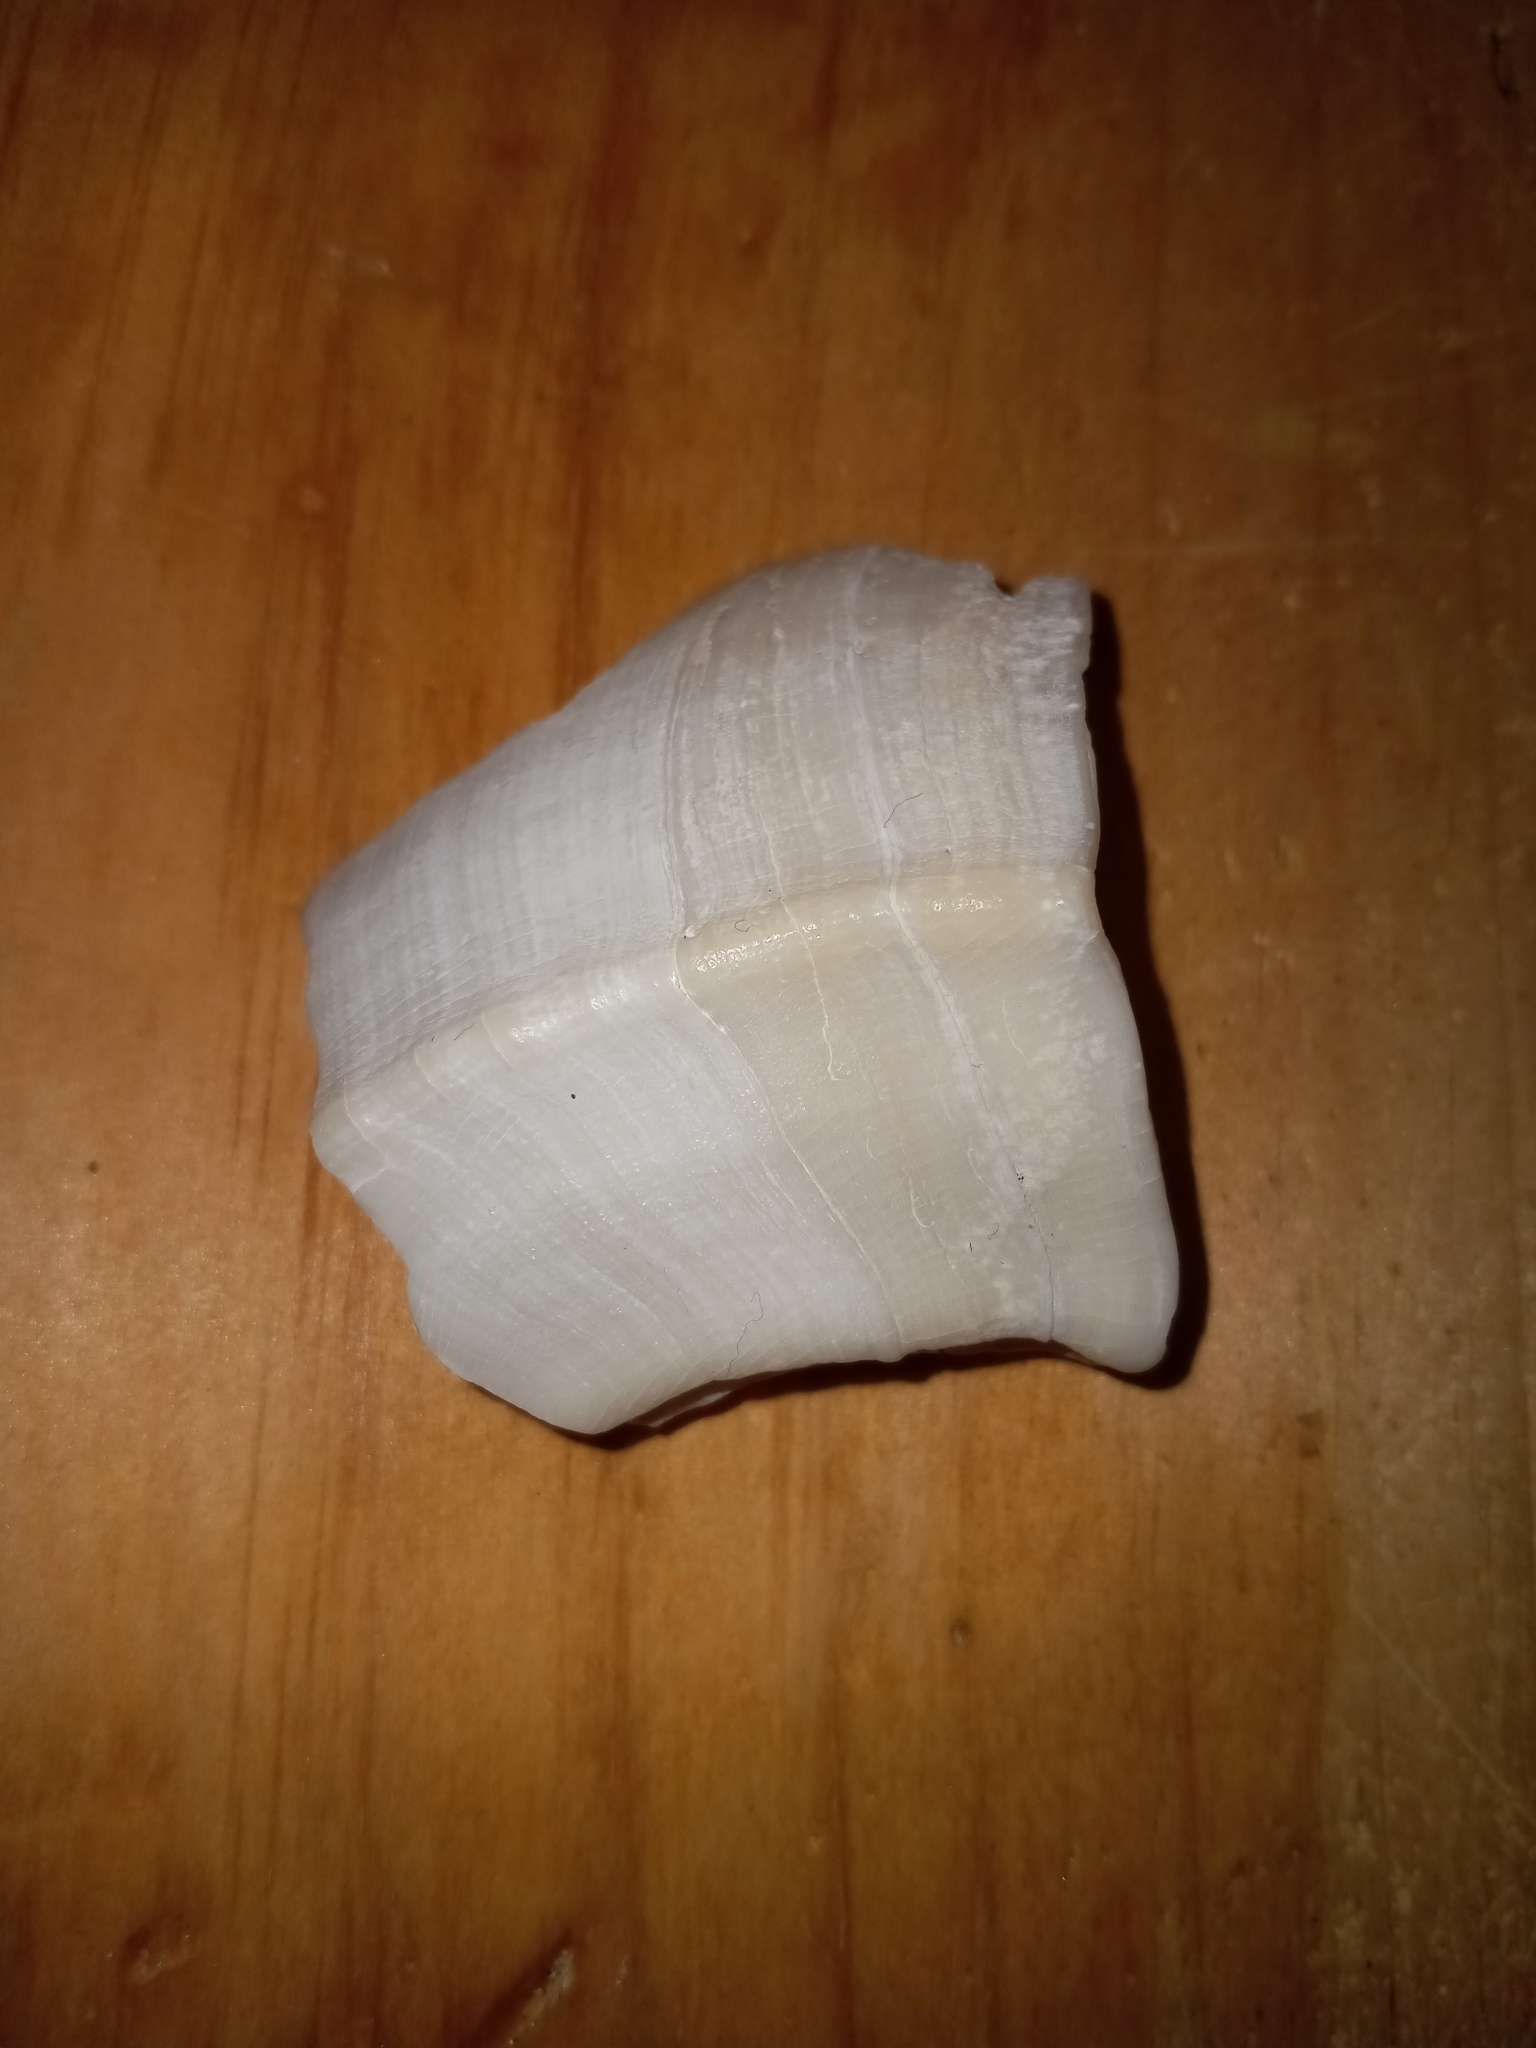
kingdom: Animalia
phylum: Mollusca
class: Gastropoda
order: Neogastropoda
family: Busyconidae
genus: Fulguropsis
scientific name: Fulguropsis pyruloides
